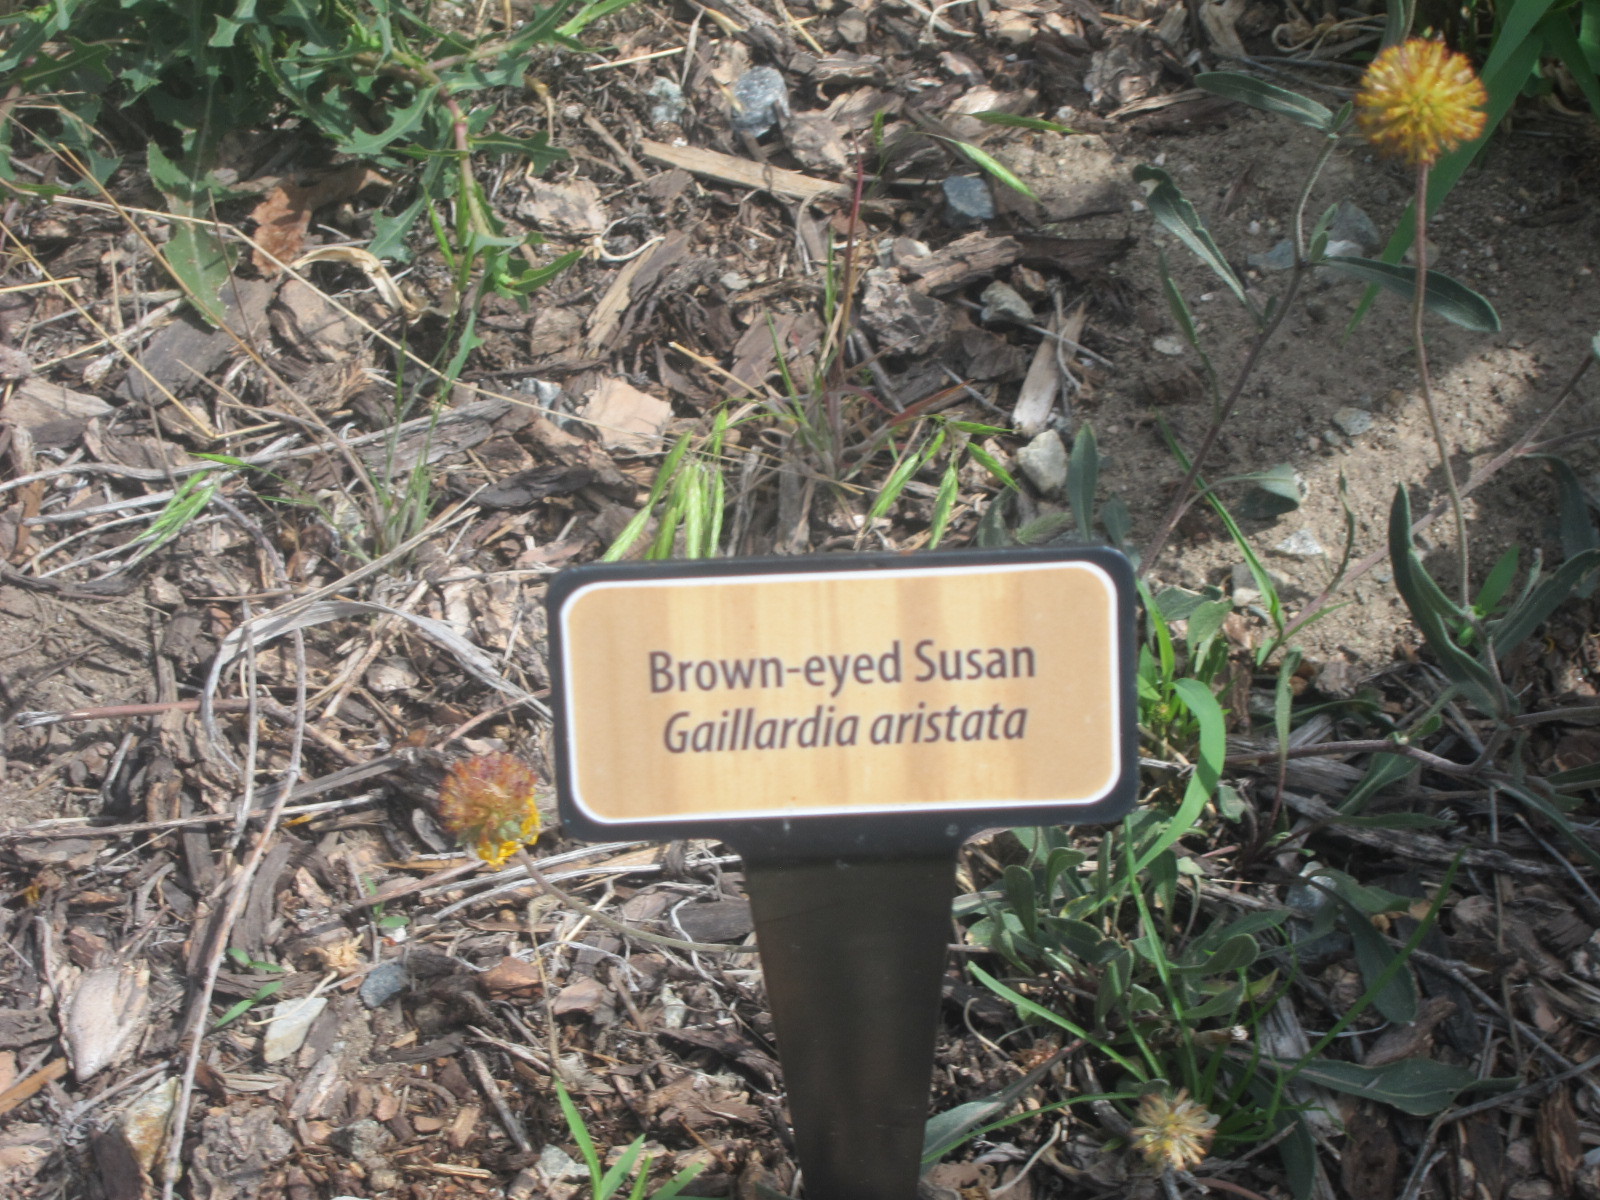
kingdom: Plantae
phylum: Tracheophyta
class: Magnoliopsida
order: Asterales
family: Asteraceae
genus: Gaillardia
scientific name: Gaillardia aristata
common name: Blanket-flower
